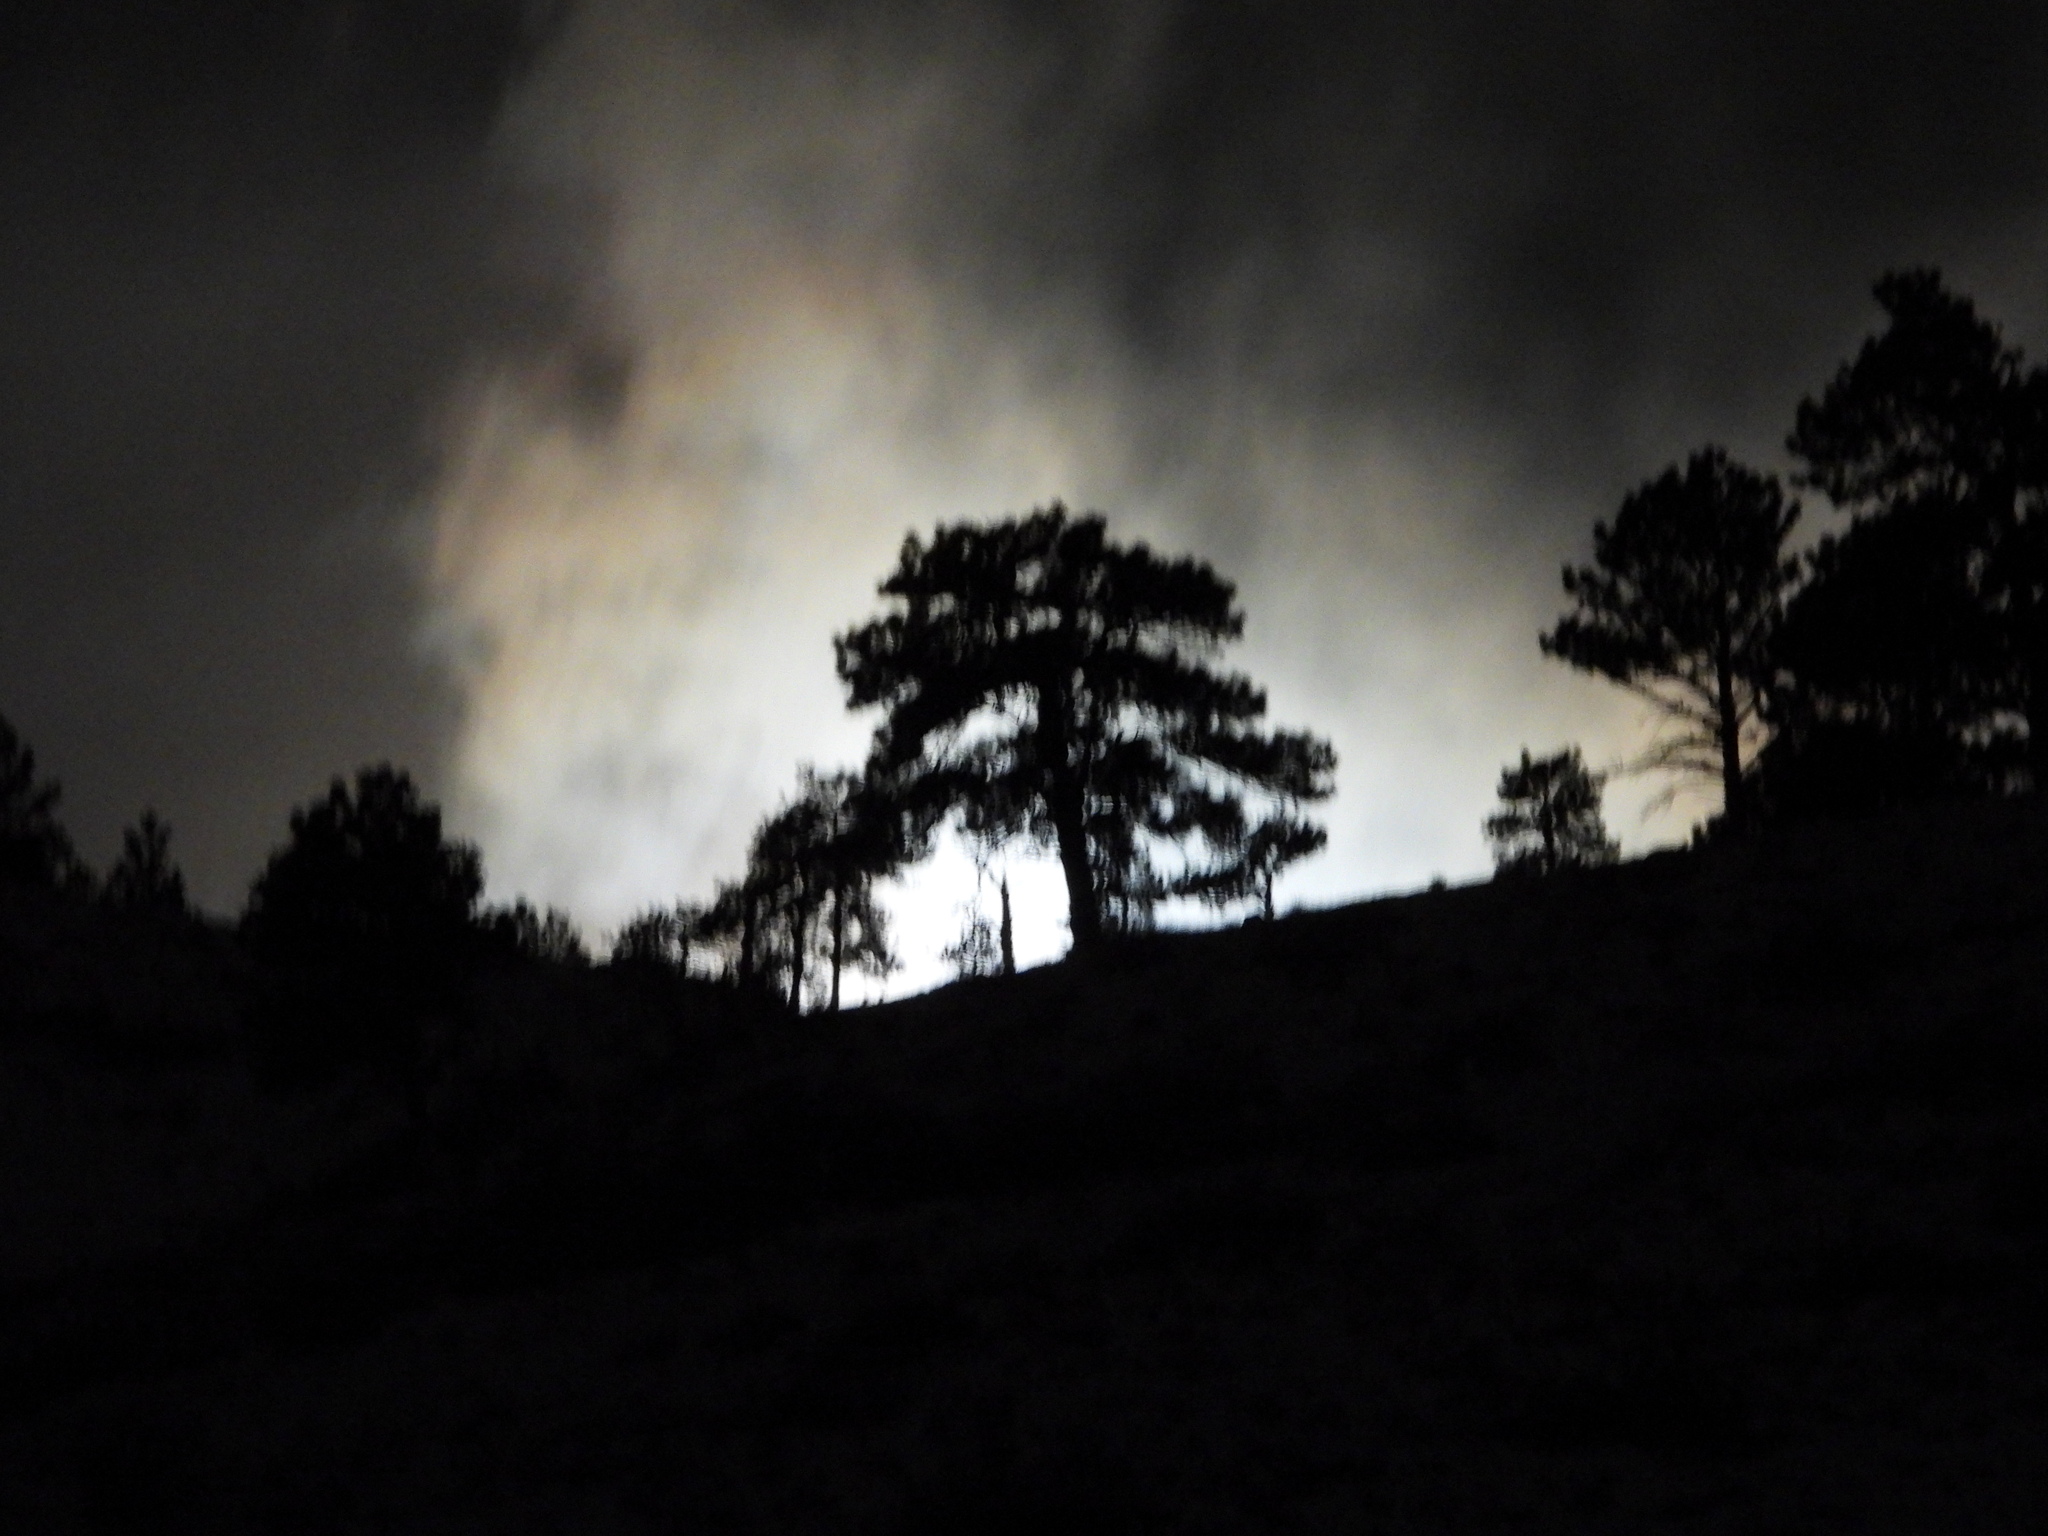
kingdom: Plantae
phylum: Tracheophyta
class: Pinopsida
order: Pinales
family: Pinaceae
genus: Pinus
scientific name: Pinus ponderosa
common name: Western yellow-pine
